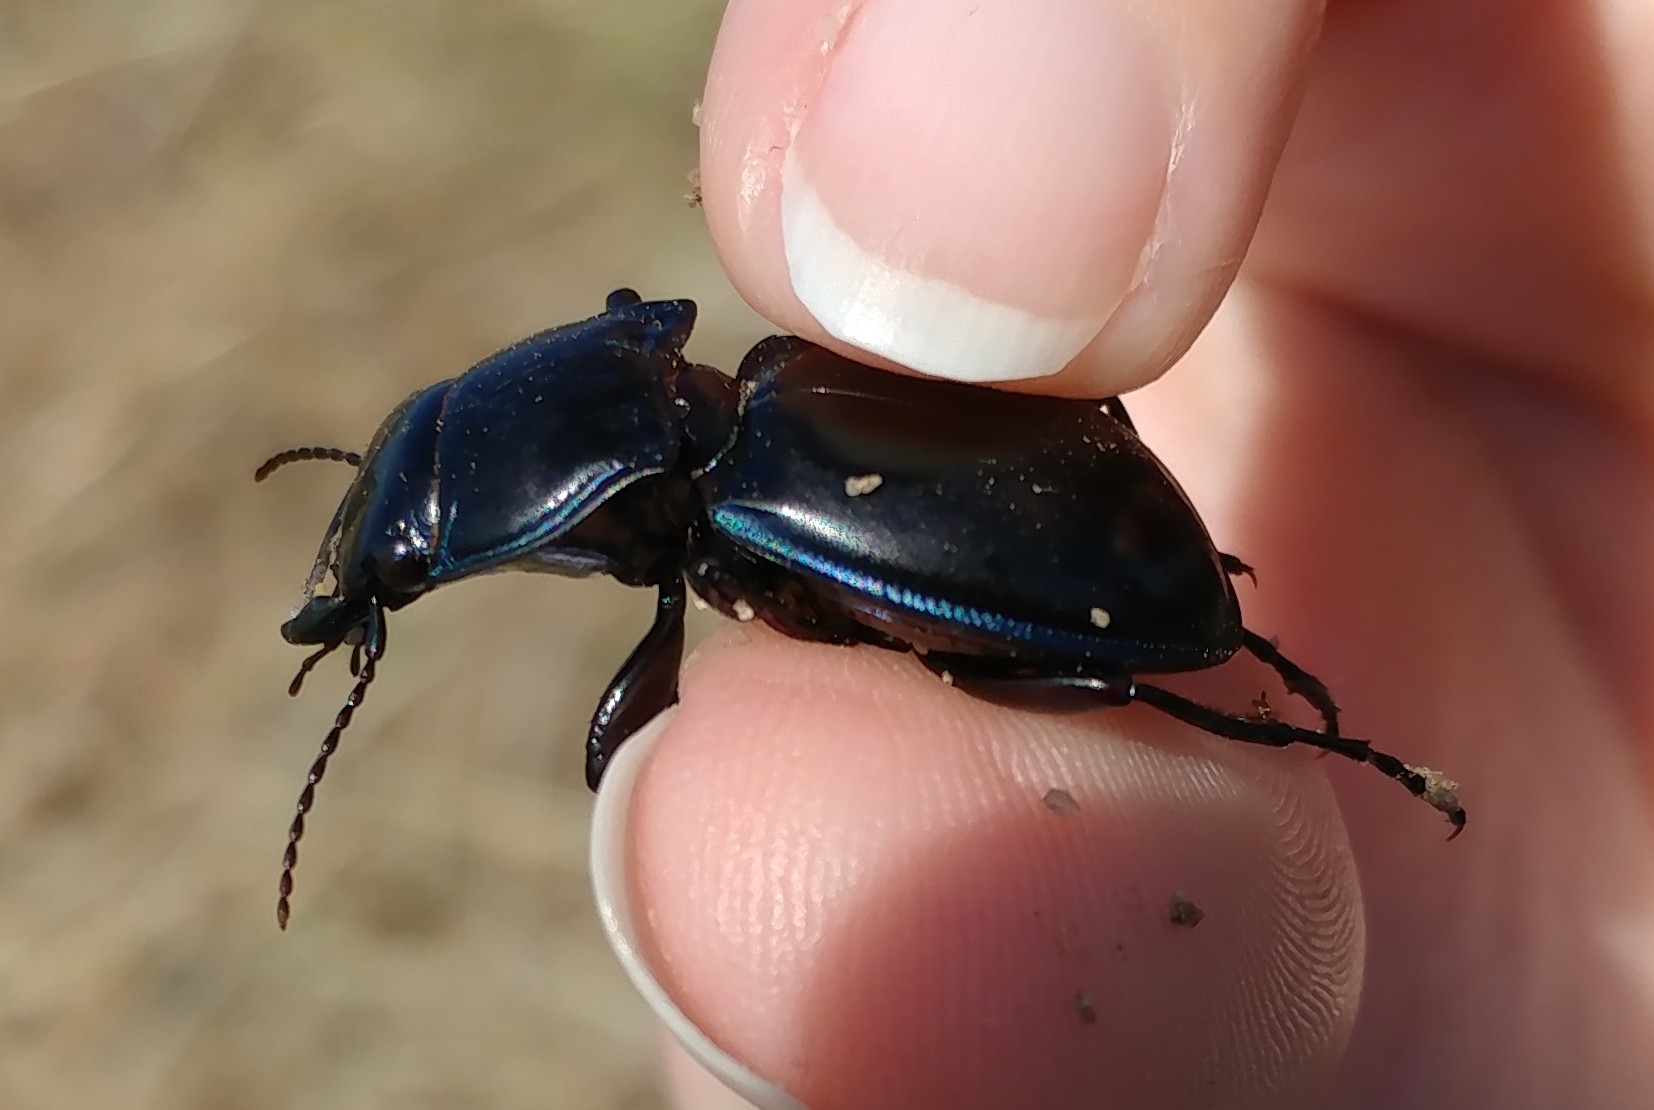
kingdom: Animalia
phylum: Arthropoda
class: Insecta
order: Coleoptera
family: Carabidae
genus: Pasimachus
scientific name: Pasimachus elongatus
